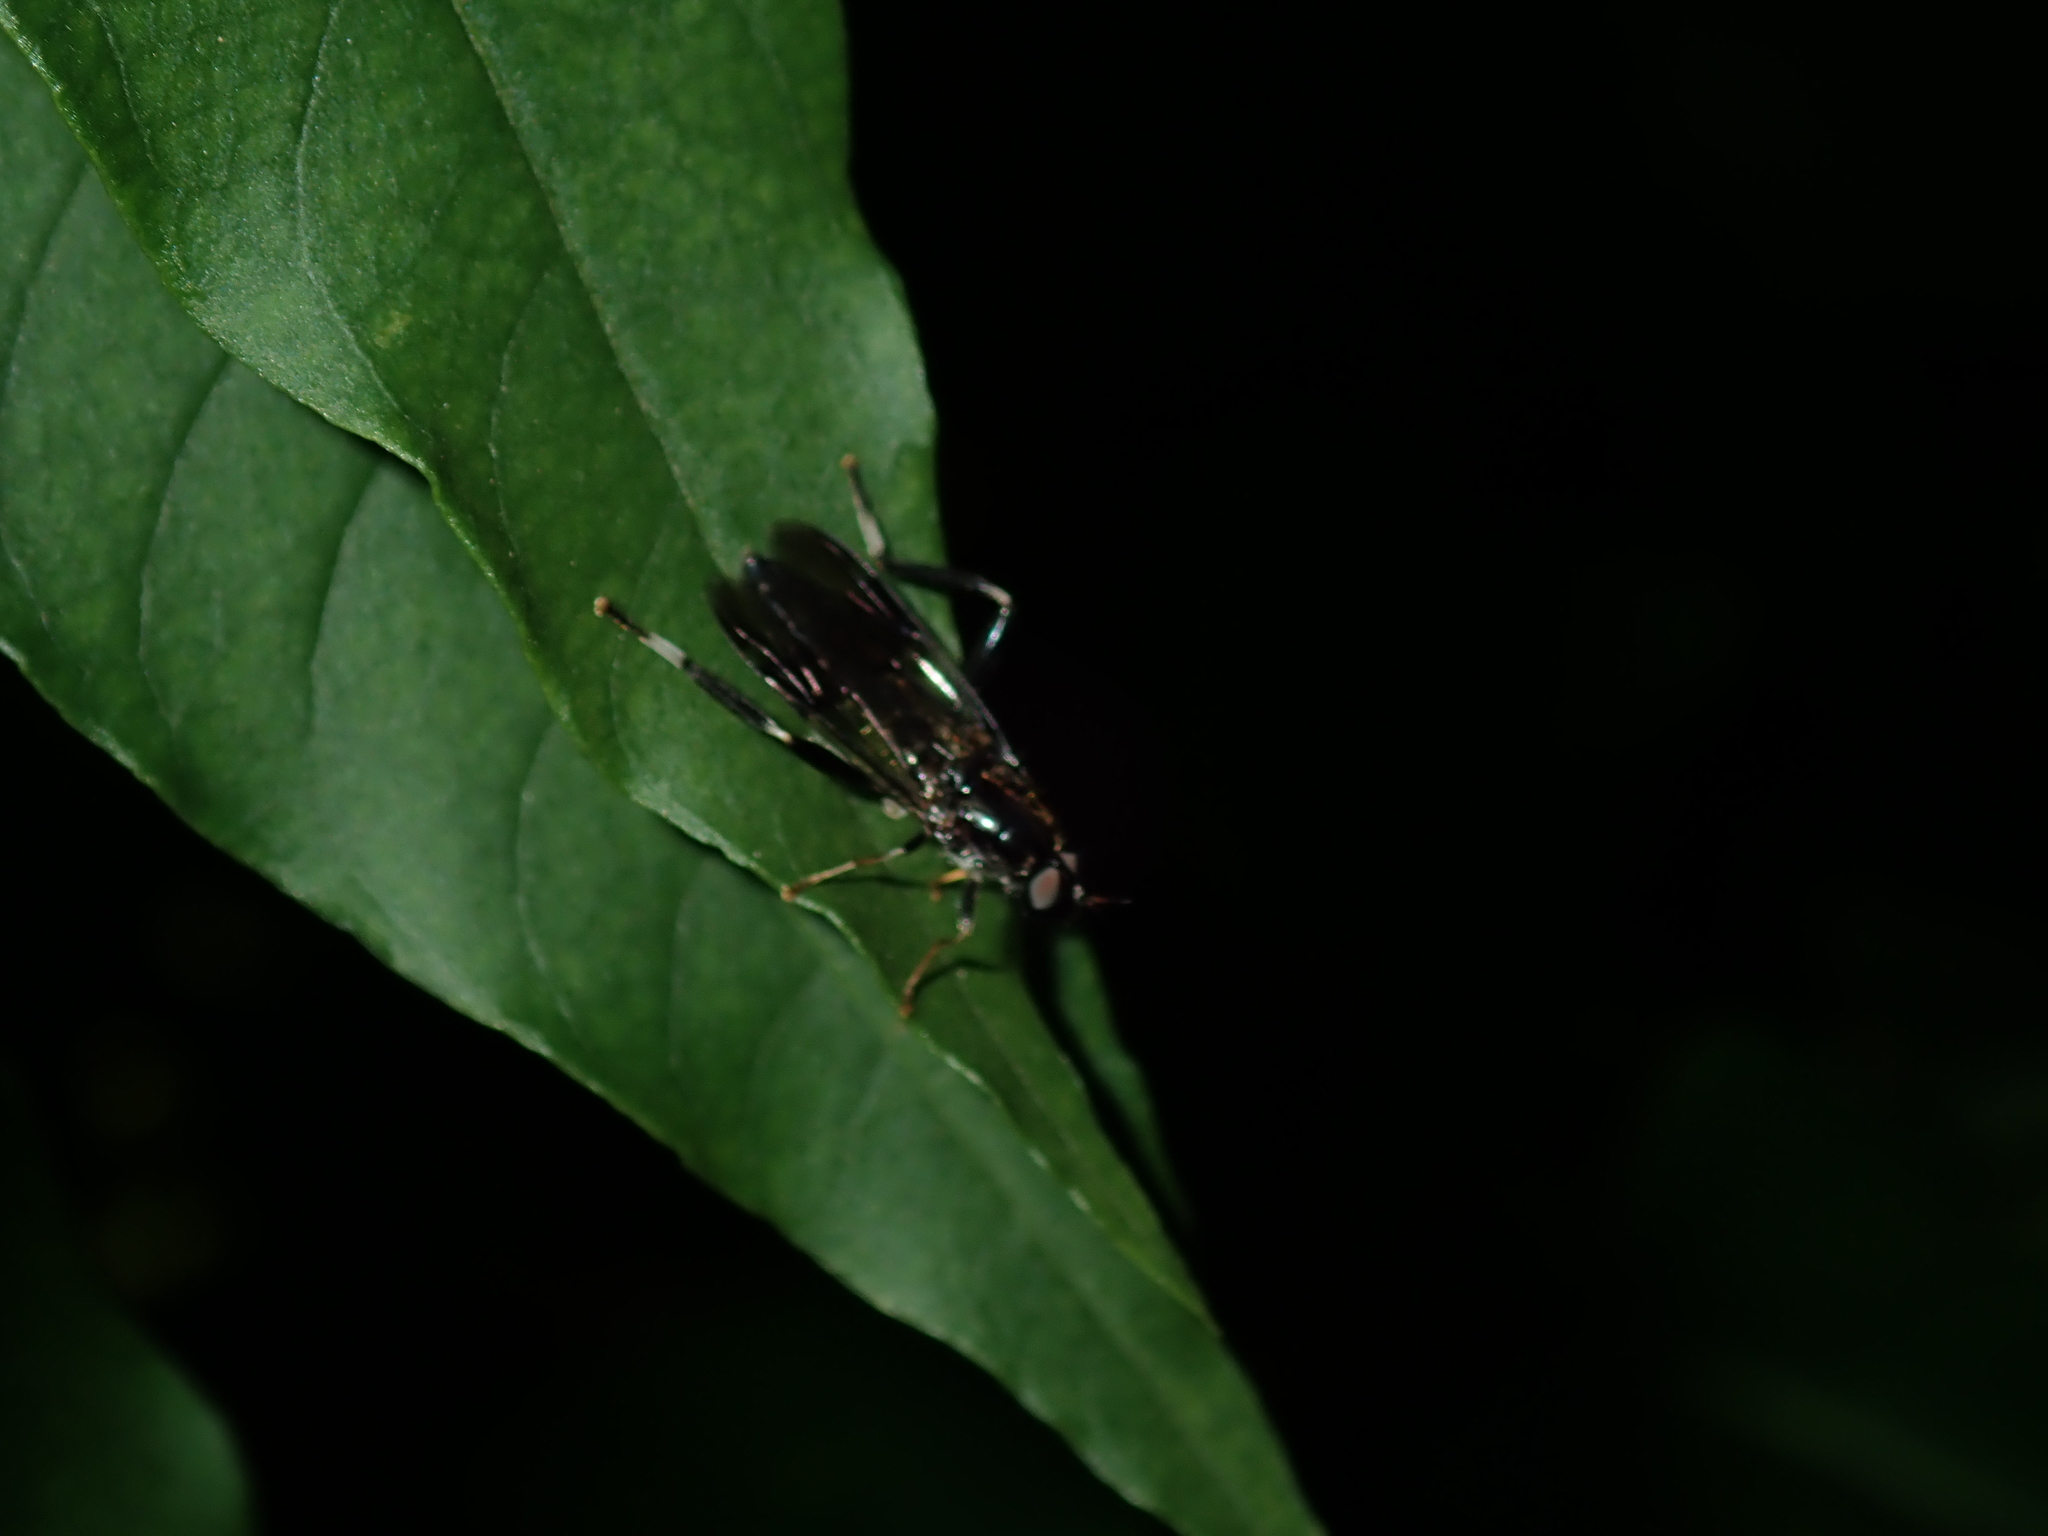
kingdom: Animalia
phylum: Arthropoda
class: Insecta
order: Diptera
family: Stratiomyidae
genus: Exaireta
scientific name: Exaireta spinigera
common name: Blue soldier fly
